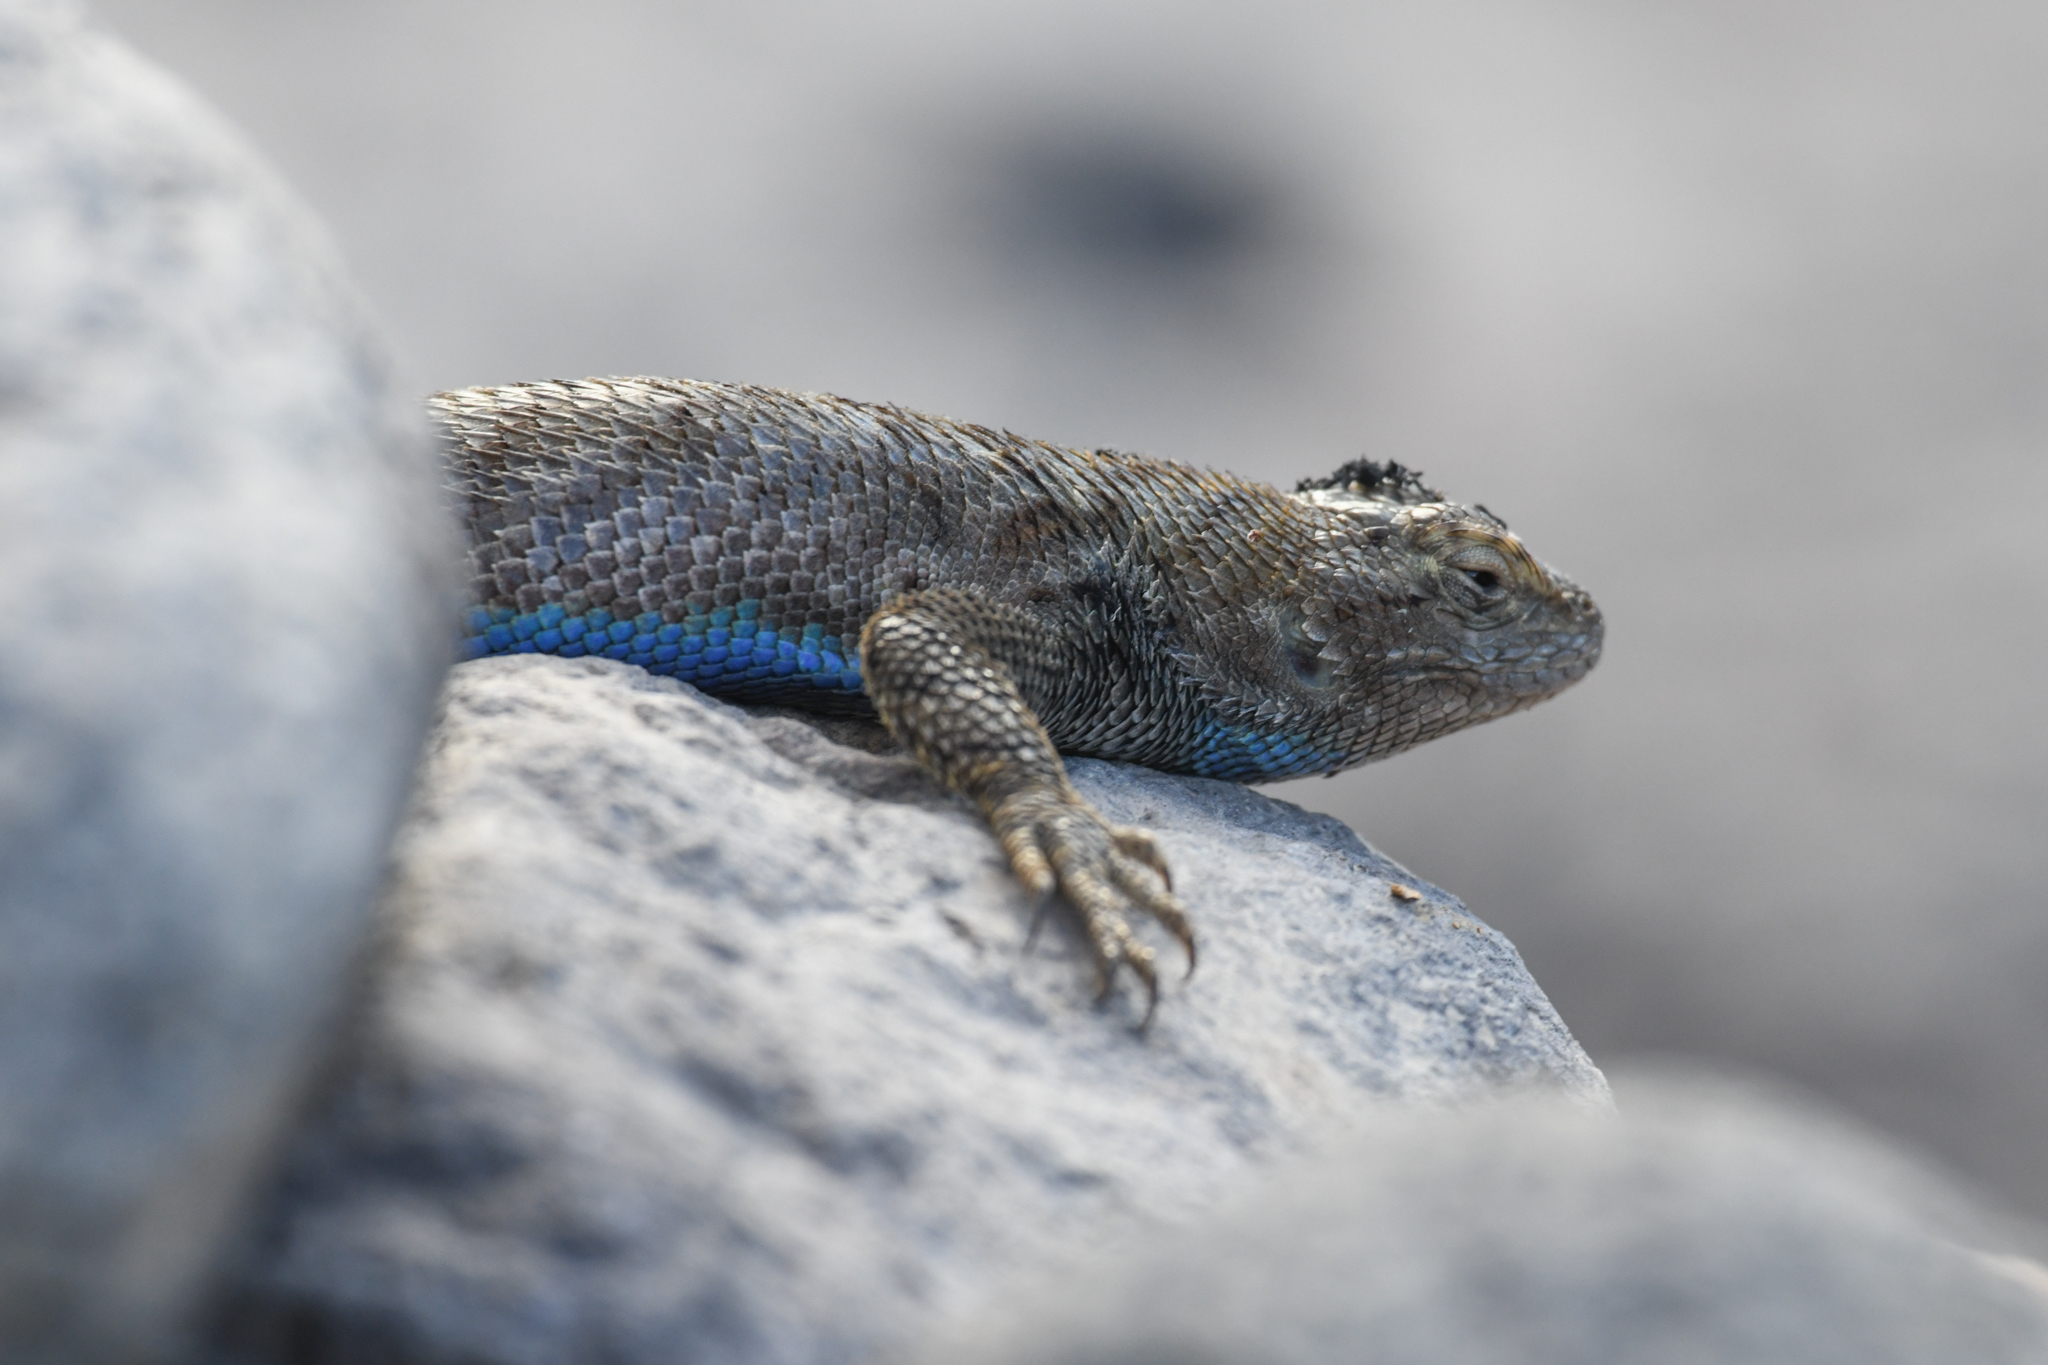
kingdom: Animalia
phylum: Chordata
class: Squamata
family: Phrynosomatidae
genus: Sceloporus
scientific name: Sceloporus occidentalis
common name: Western fence lizard
